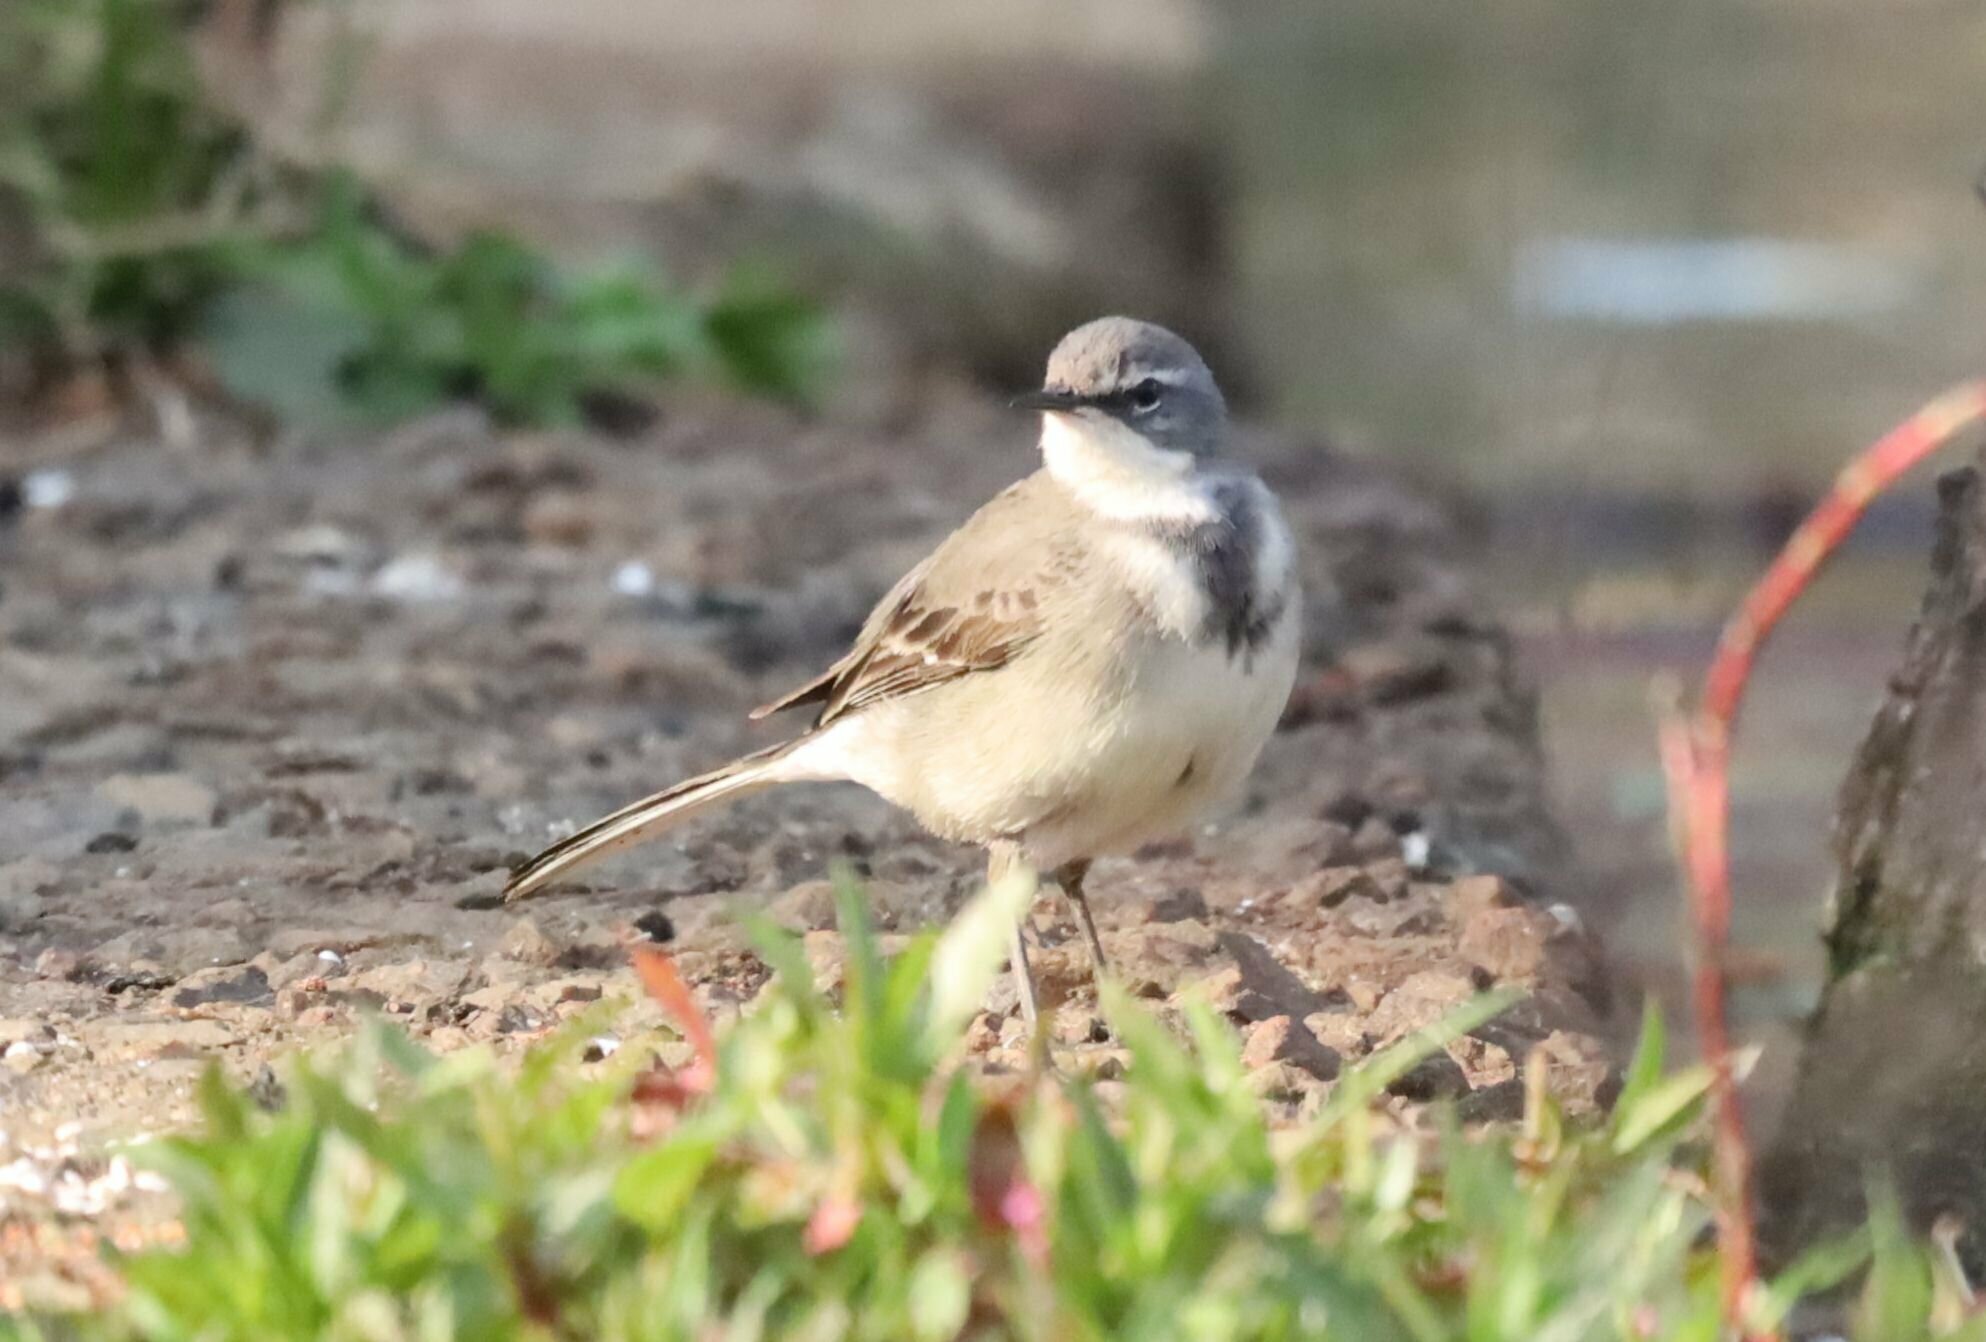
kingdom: Animalia
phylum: Chordata
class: Aves
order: Passeriformes
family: Motacillidae
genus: Motacilla
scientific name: Motacilla capensis
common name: Cape wagtail
